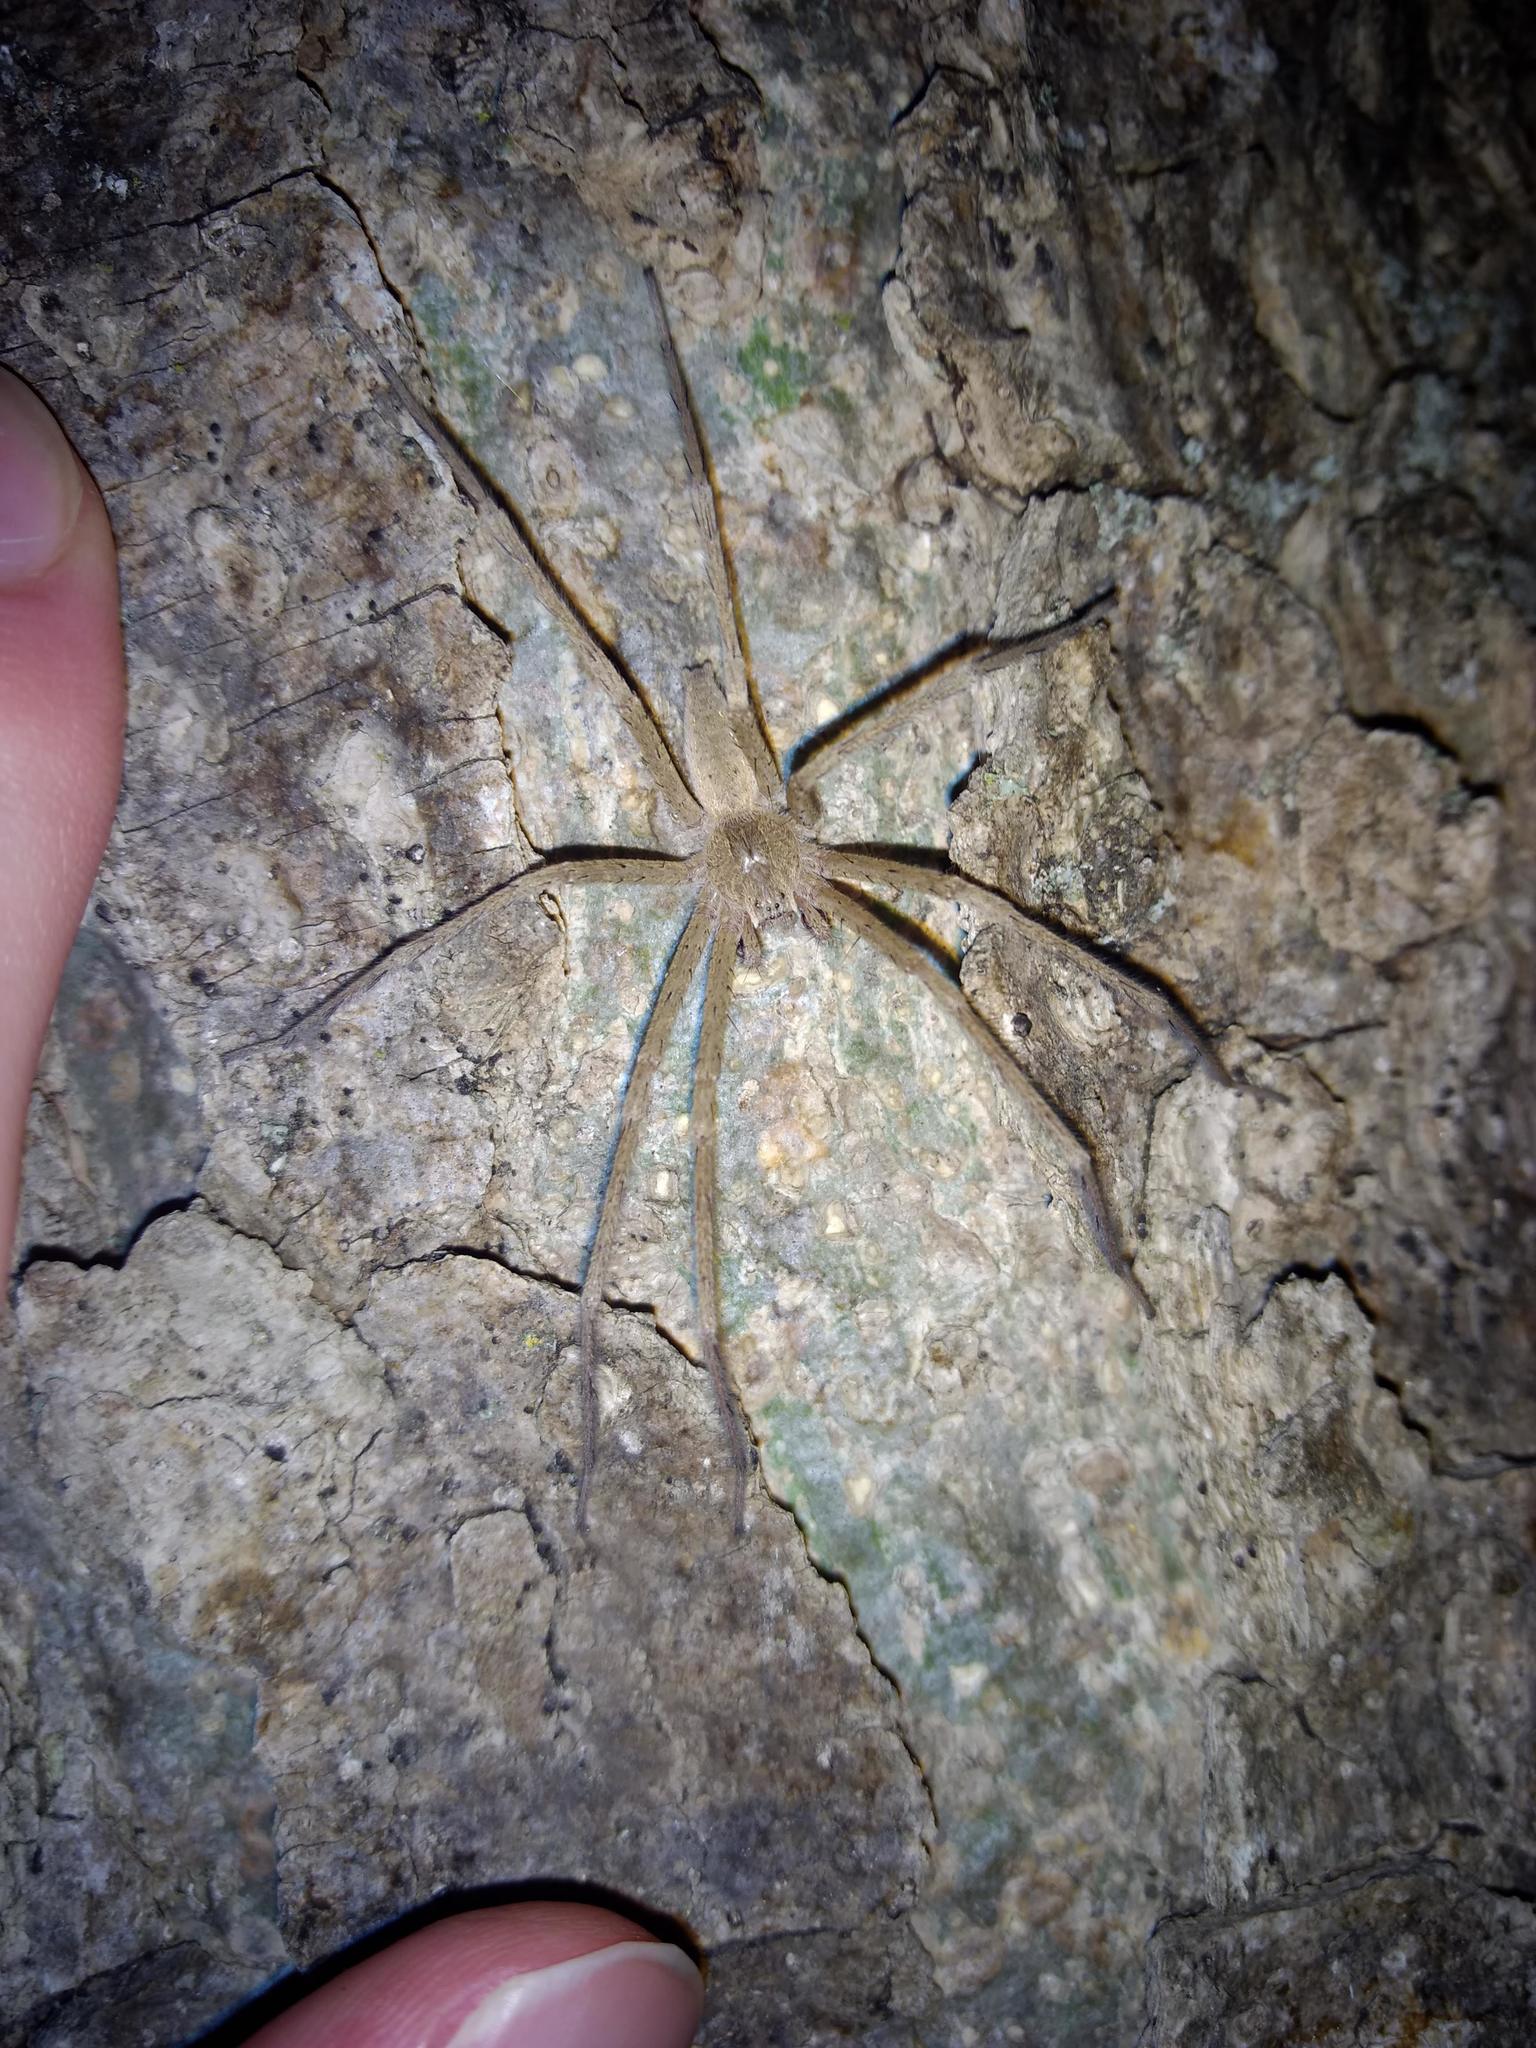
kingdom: Animalia
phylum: Arthropoda
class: Arachnida
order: Araneae
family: Pisauridae
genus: Pisaurina
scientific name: Pisaurina mira
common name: American nursery web spider
